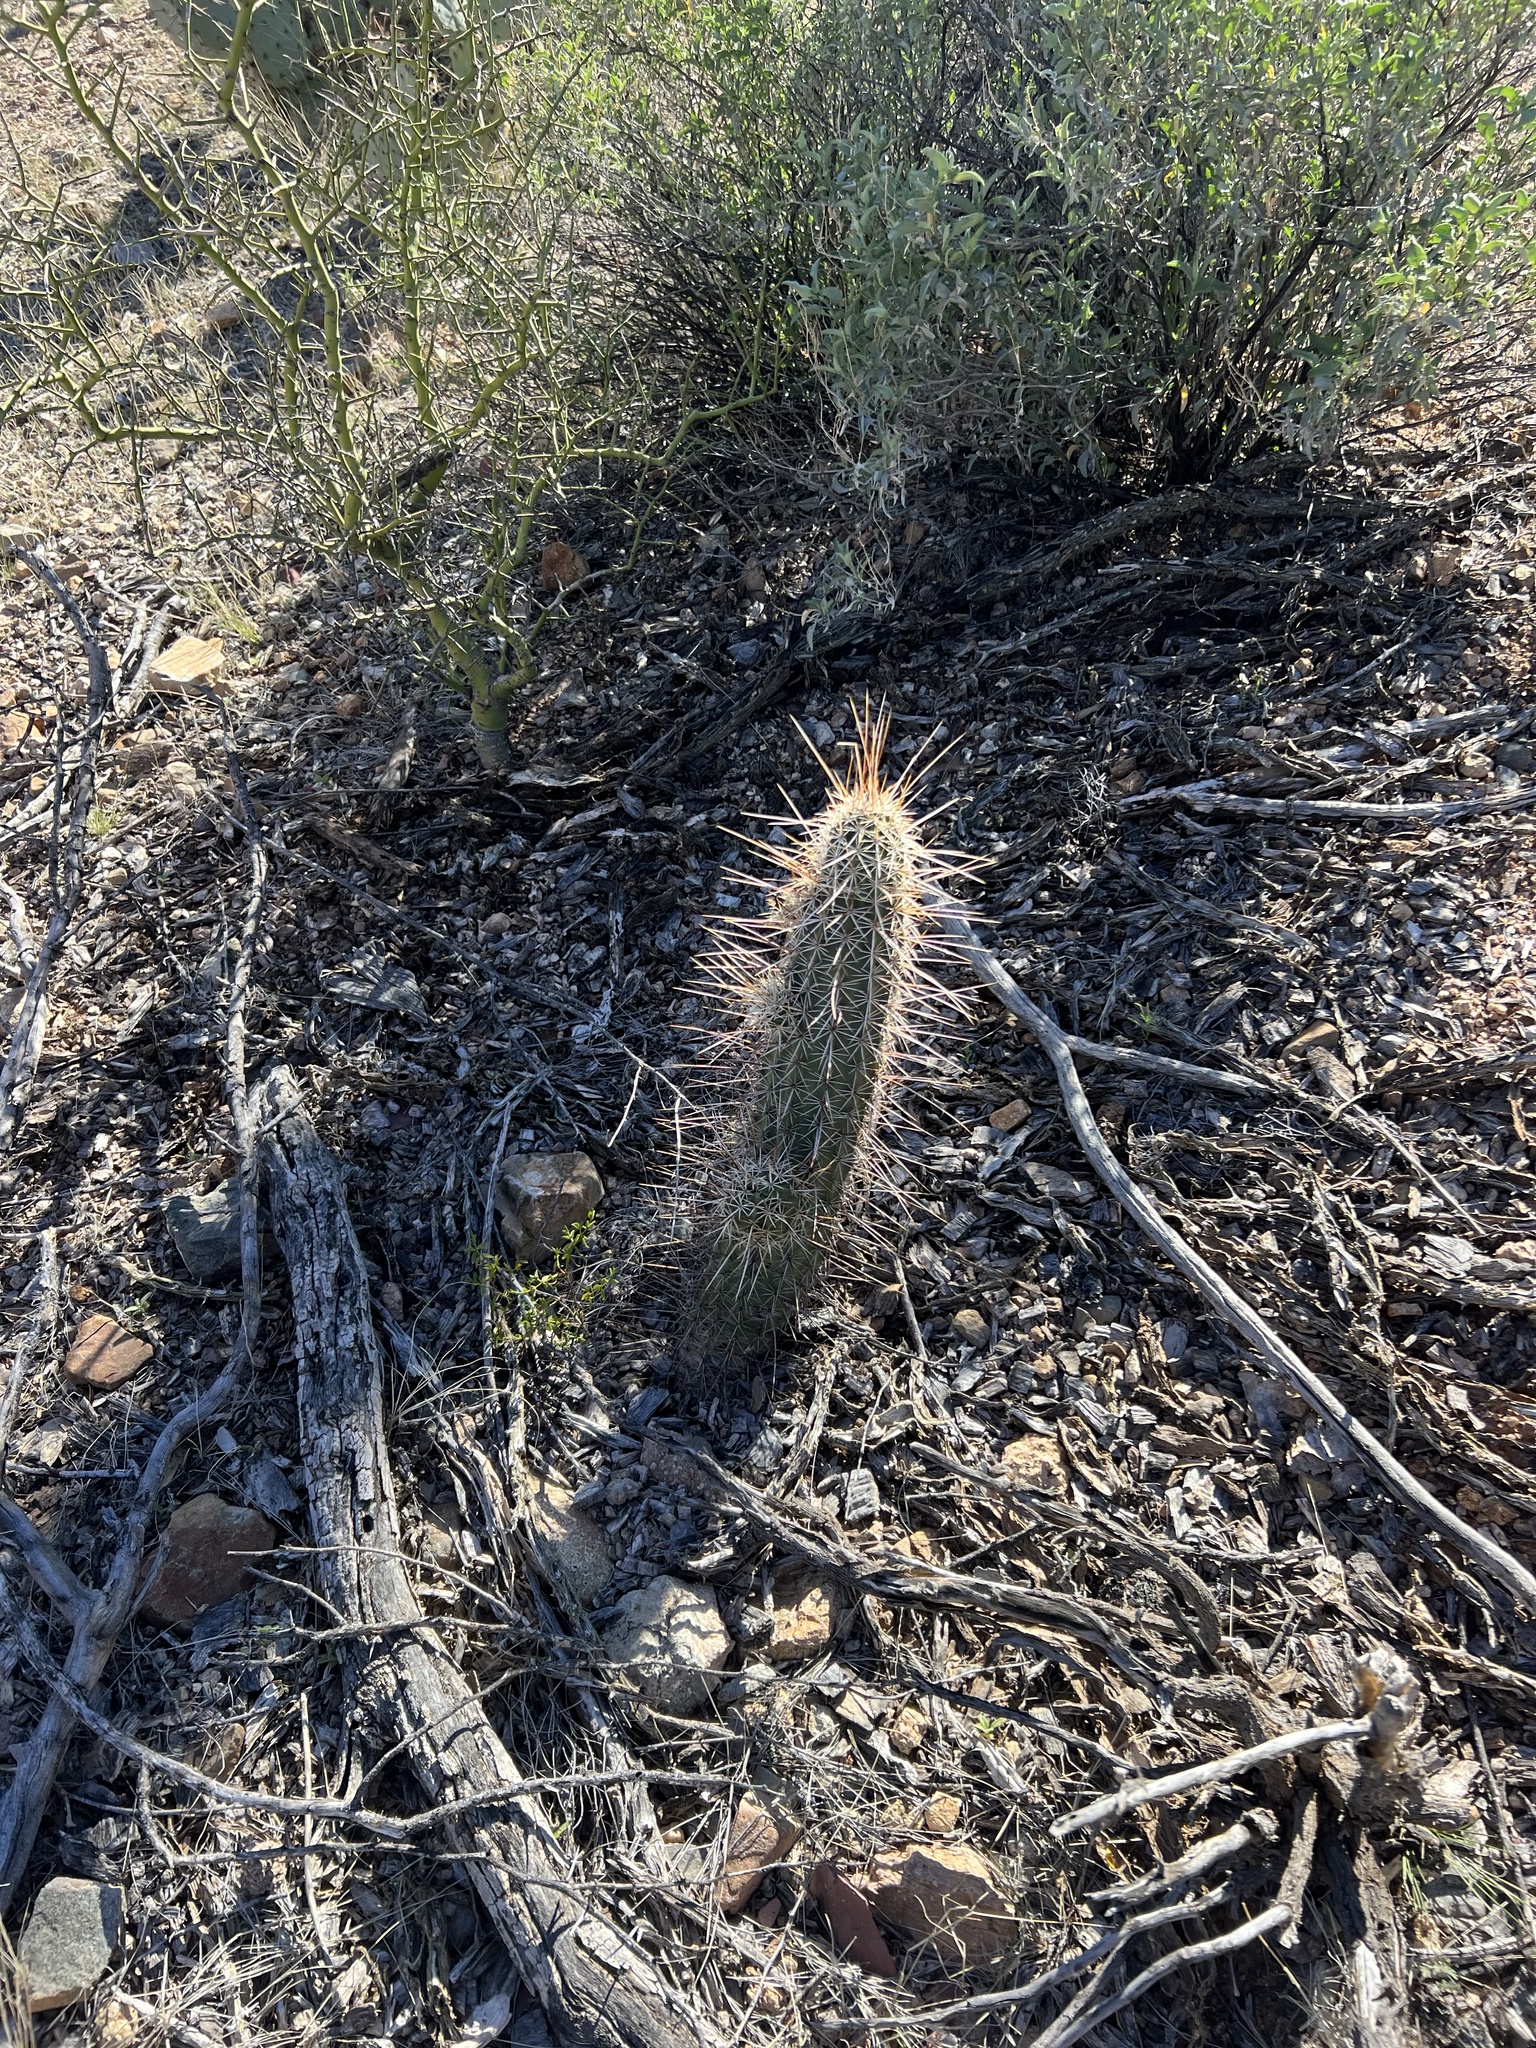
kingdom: Plantae
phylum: Tracheophyta
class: Magnoliopsida
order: Caryophyllales
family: Cactaceae
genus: Echinocereus
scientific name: Echinocereus fasciculatus
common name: Bundle hedgehog
